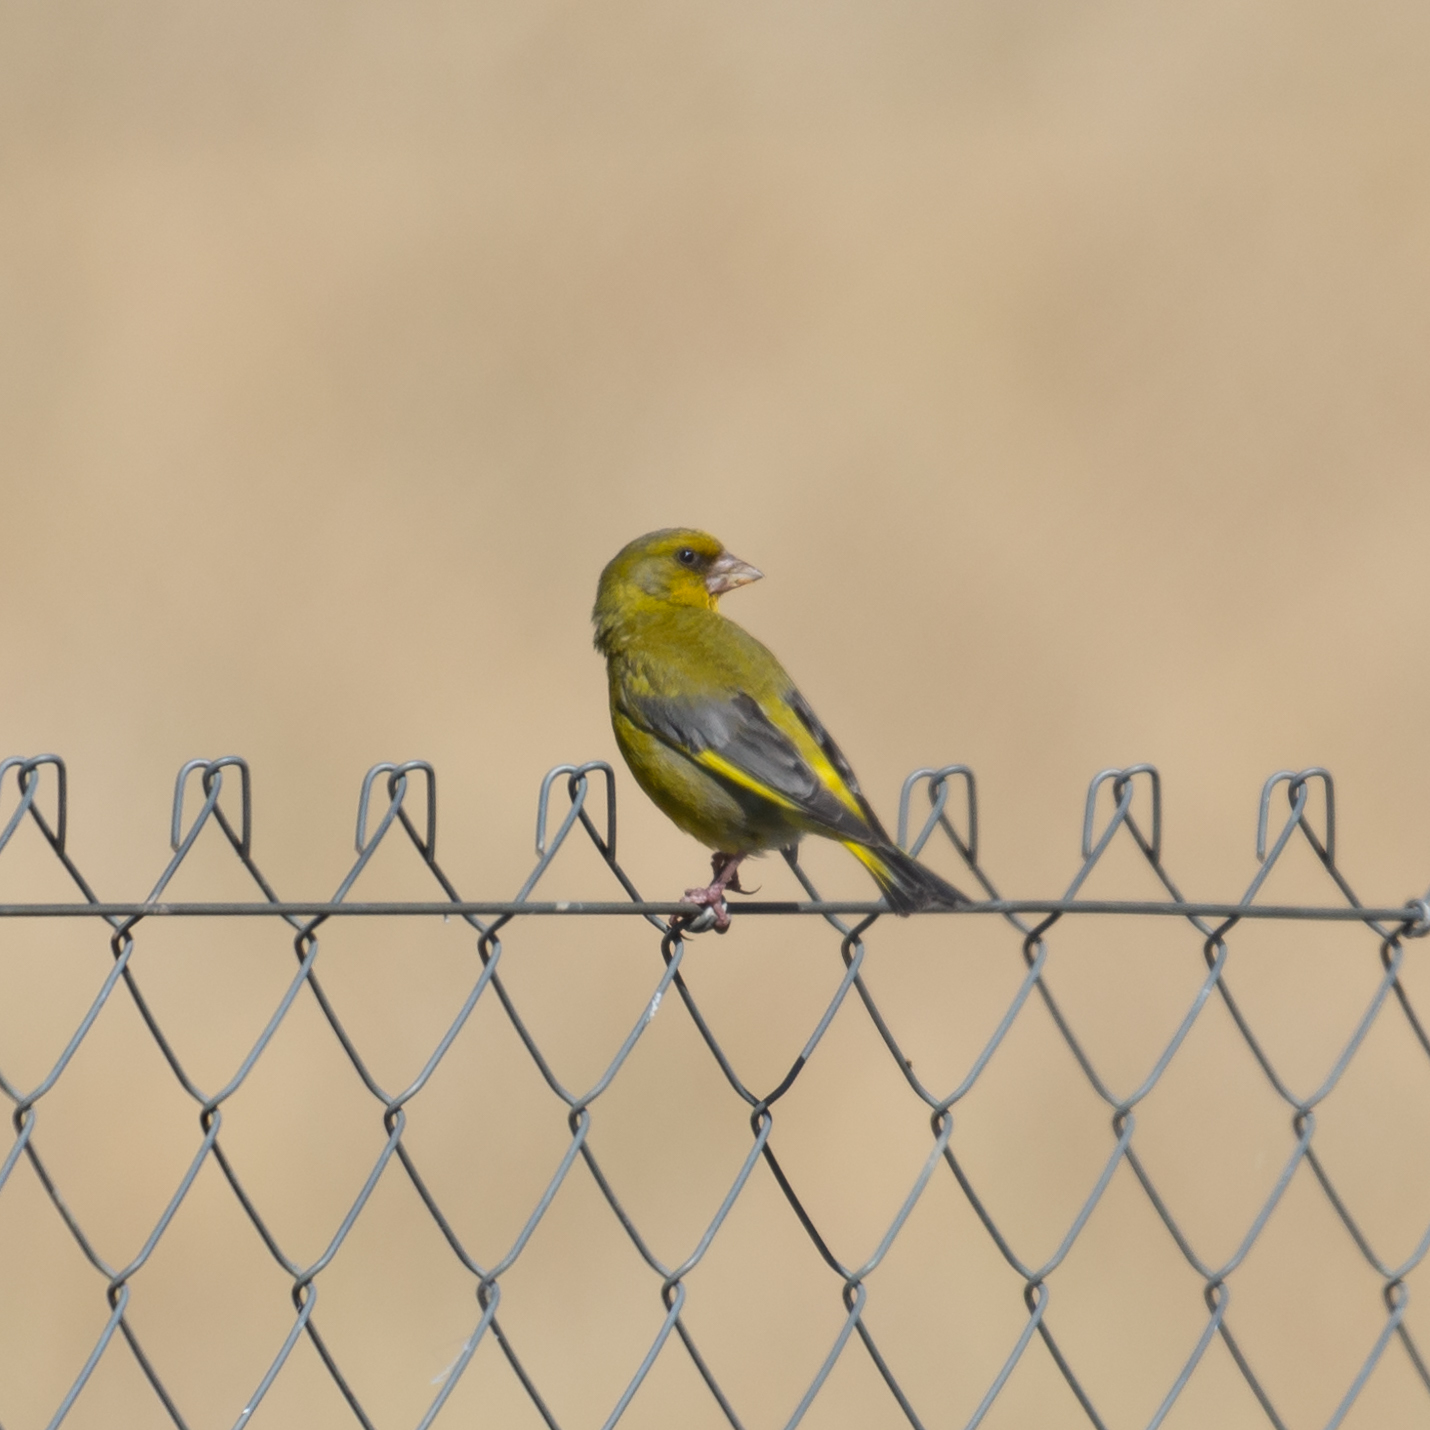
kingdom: Plantae
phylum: Tracheophyta
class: Liliopsida
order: Poales
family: Poaceae
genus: Chloris
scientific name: Chloris chloris
